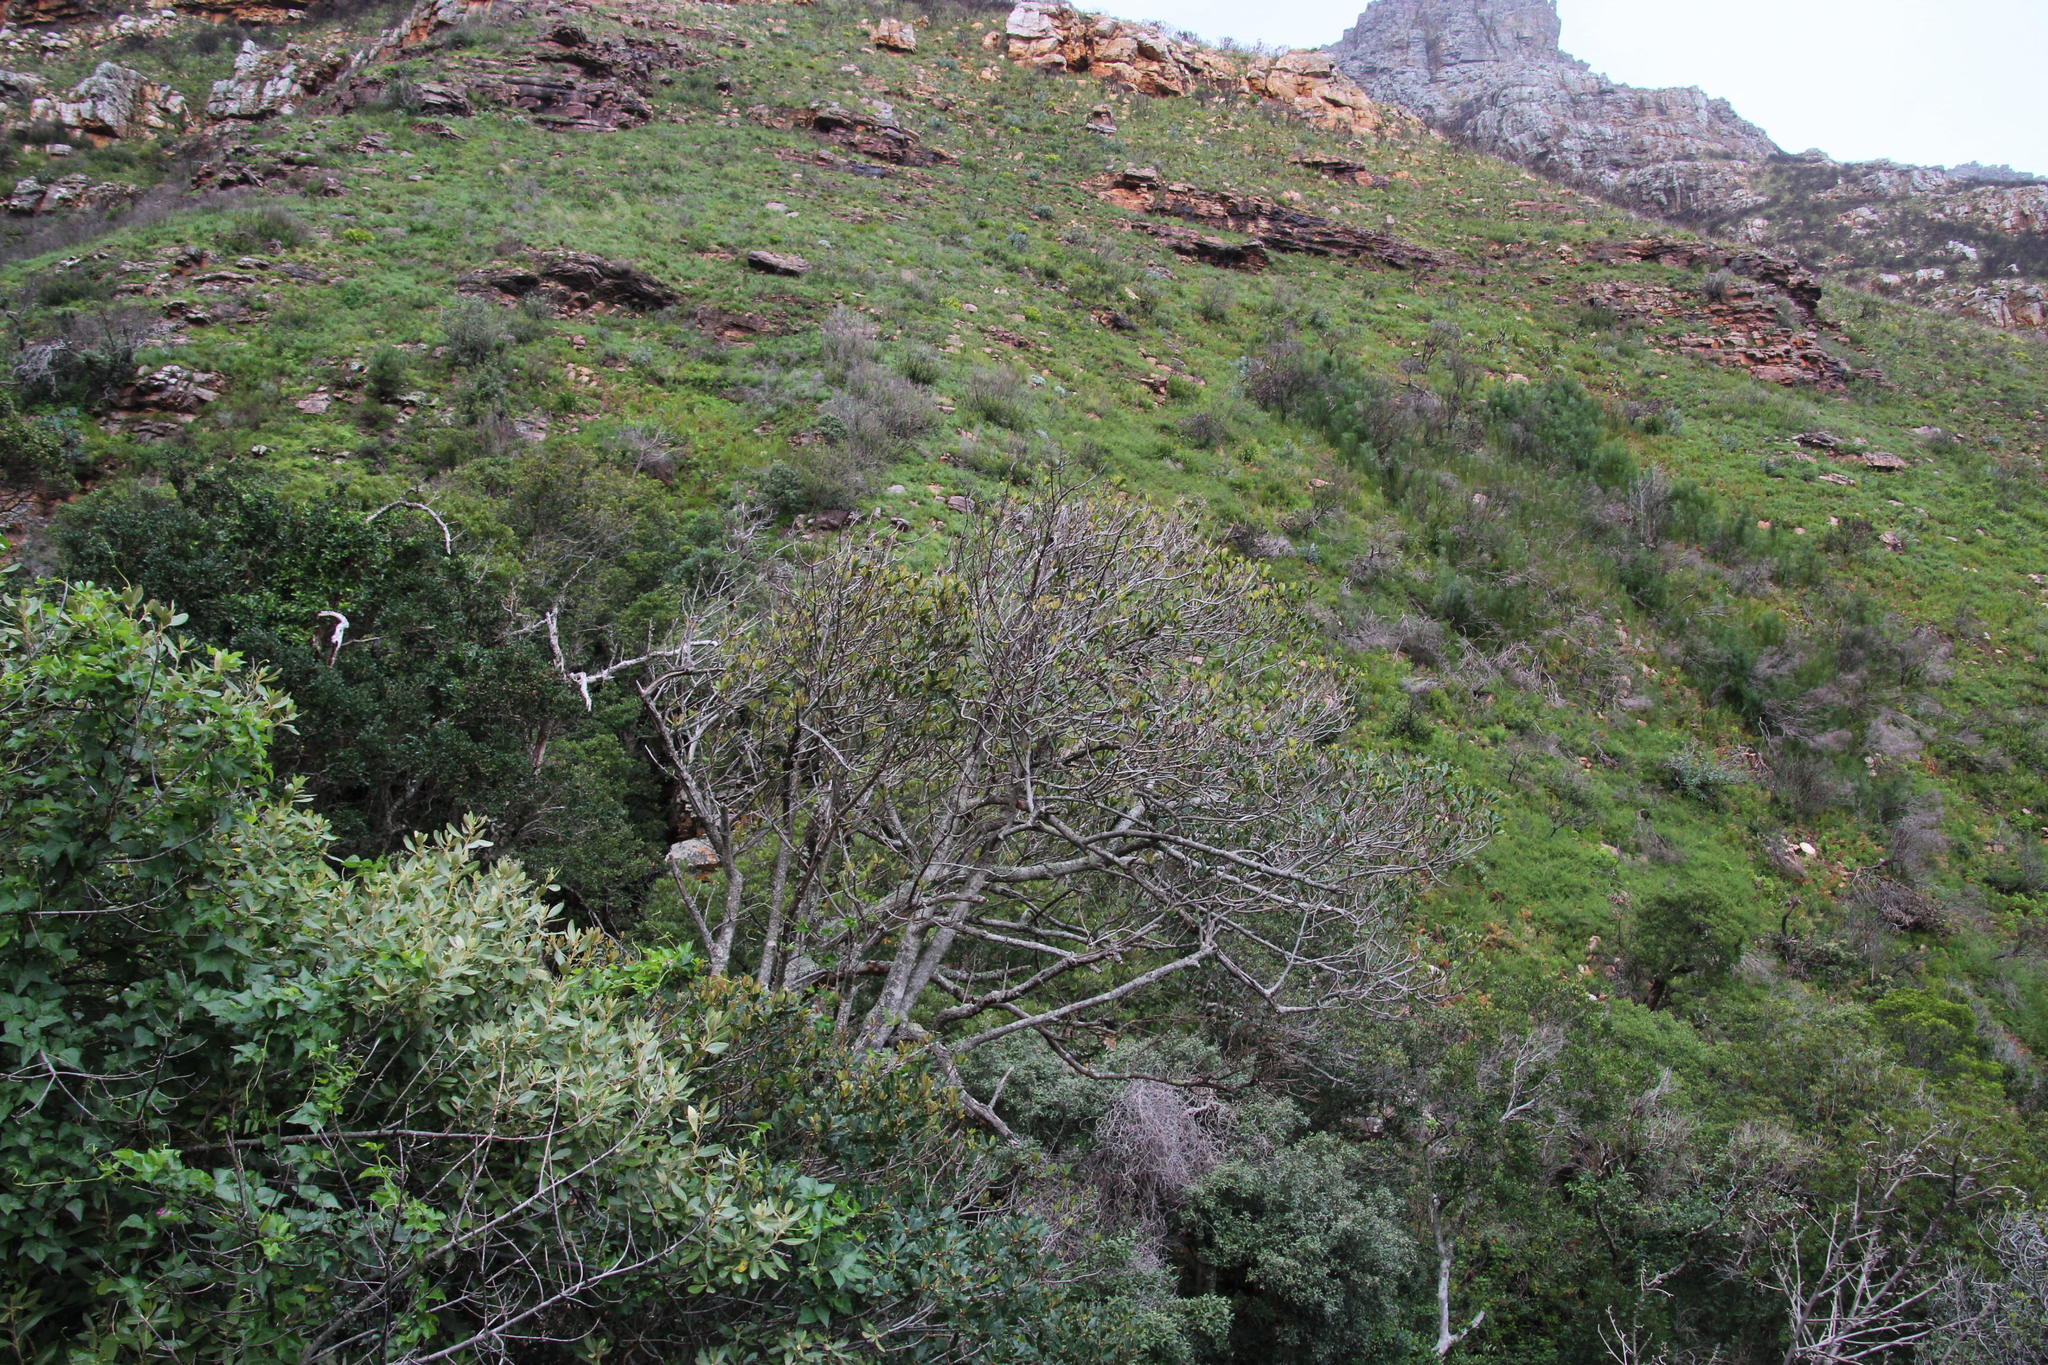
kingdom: Plantae
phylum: Tracheophyta
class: Magnoliopsida
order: Ericales
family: Primulaceae
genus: Myrsine
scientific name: Myrsine melanophloeos
